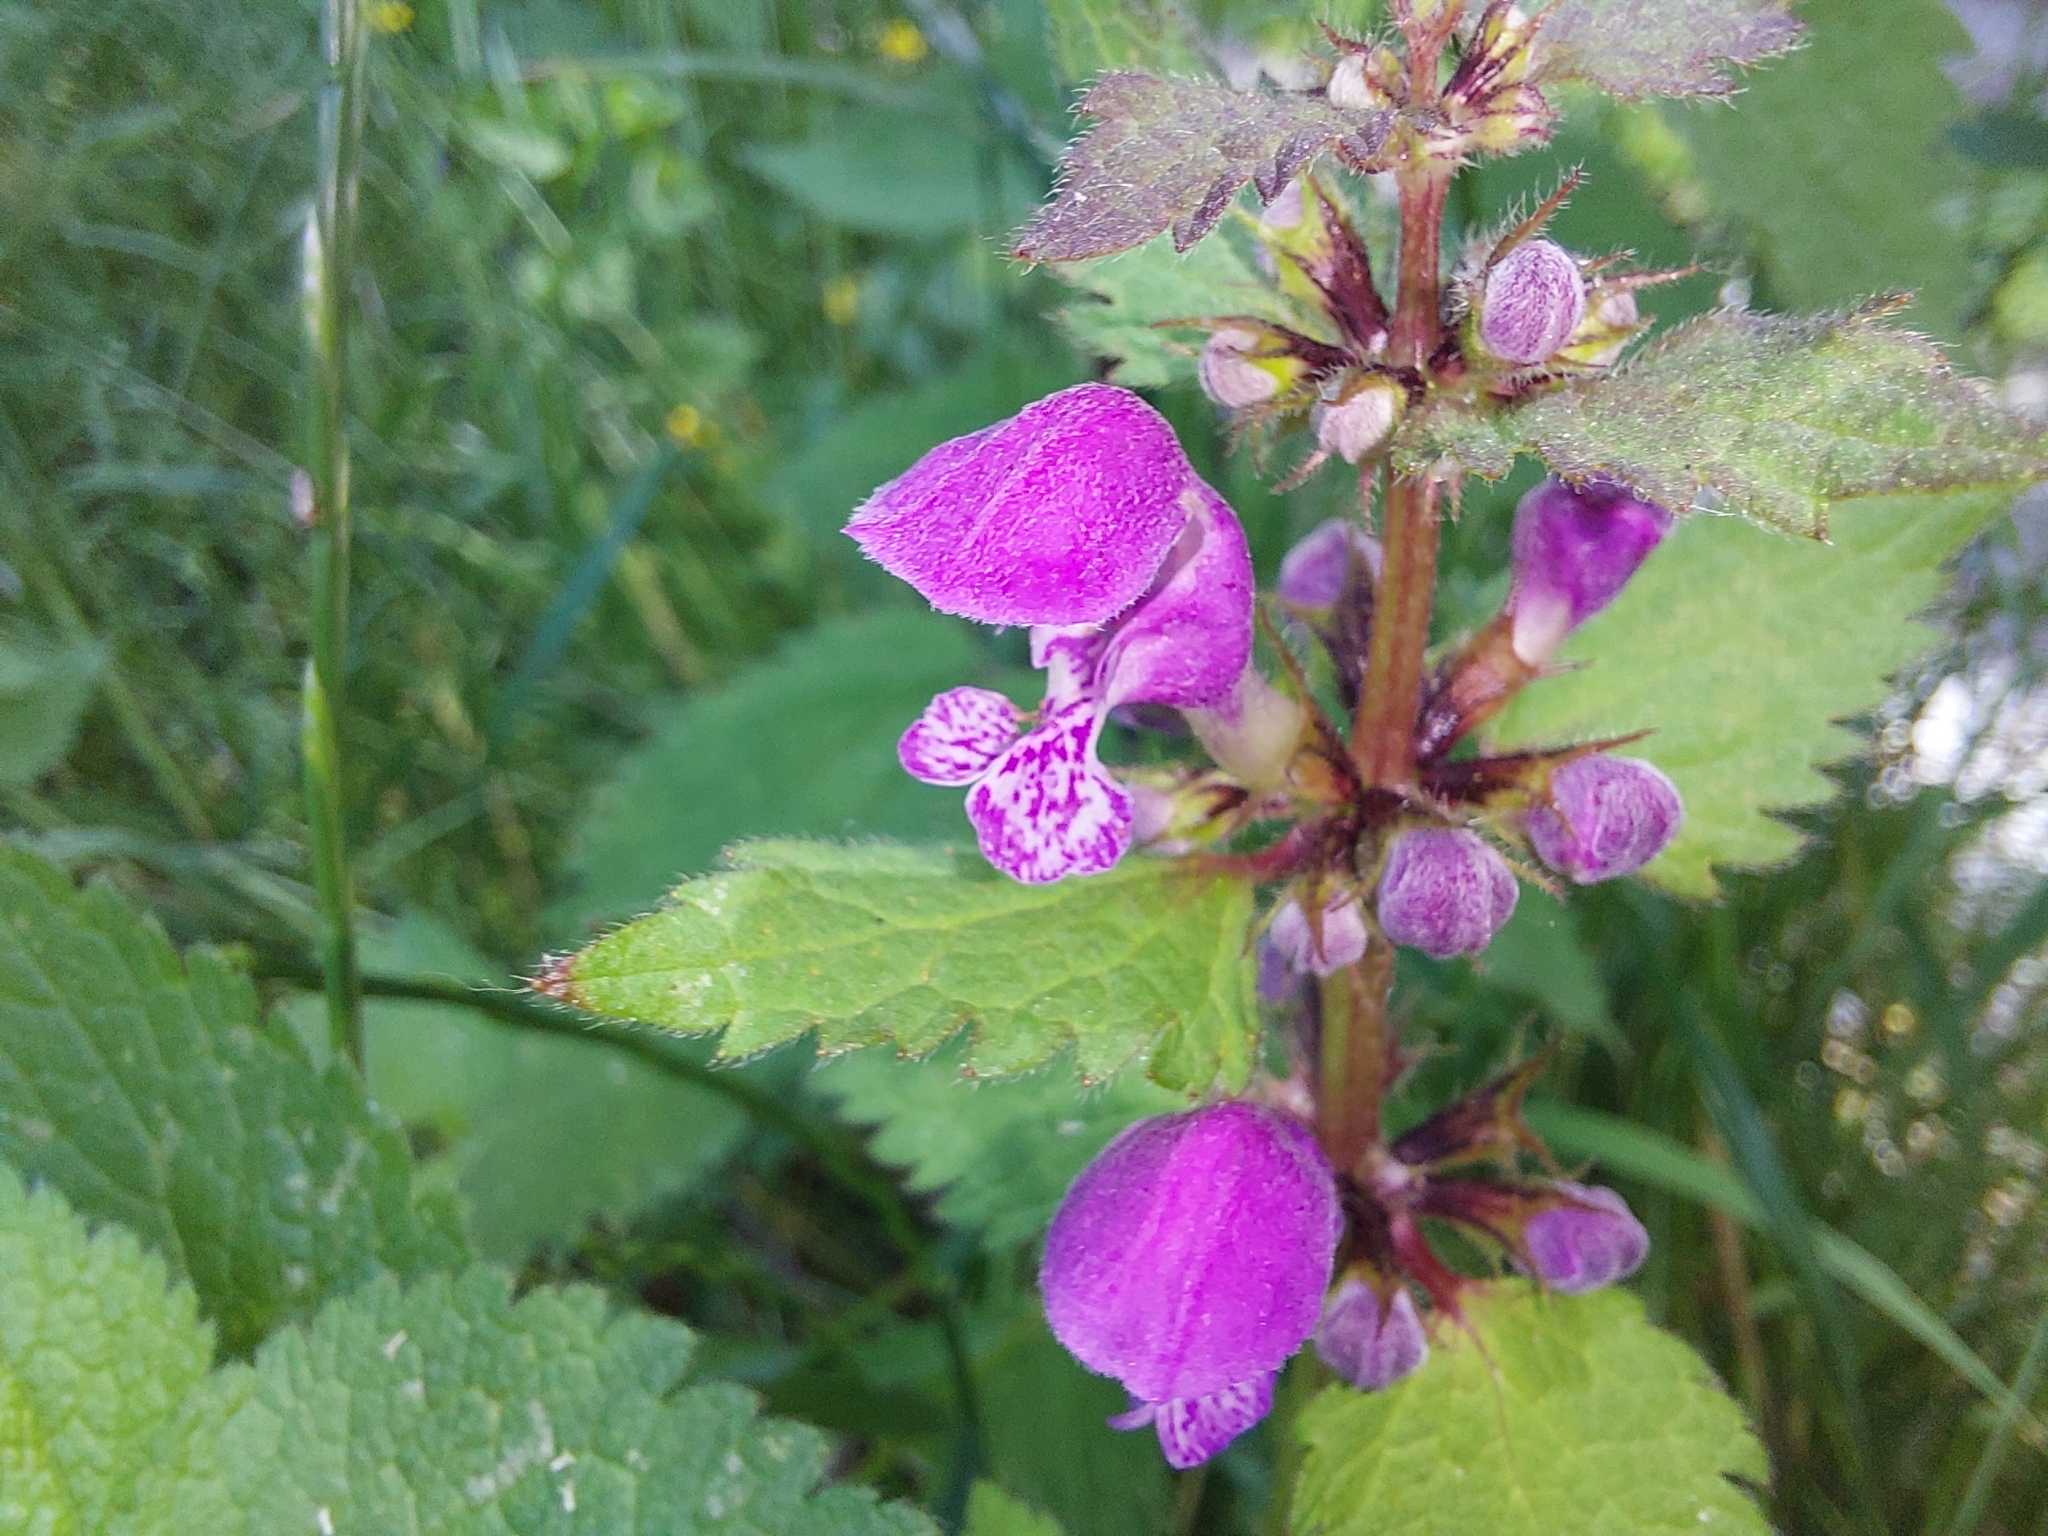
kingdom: Plantae
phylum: Tracheophyta
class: Magnoliopsida
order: Lamiales
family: Lamiaceae
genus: Lamium
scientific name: Lamium maculatum
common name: Spotted dead-nettle
